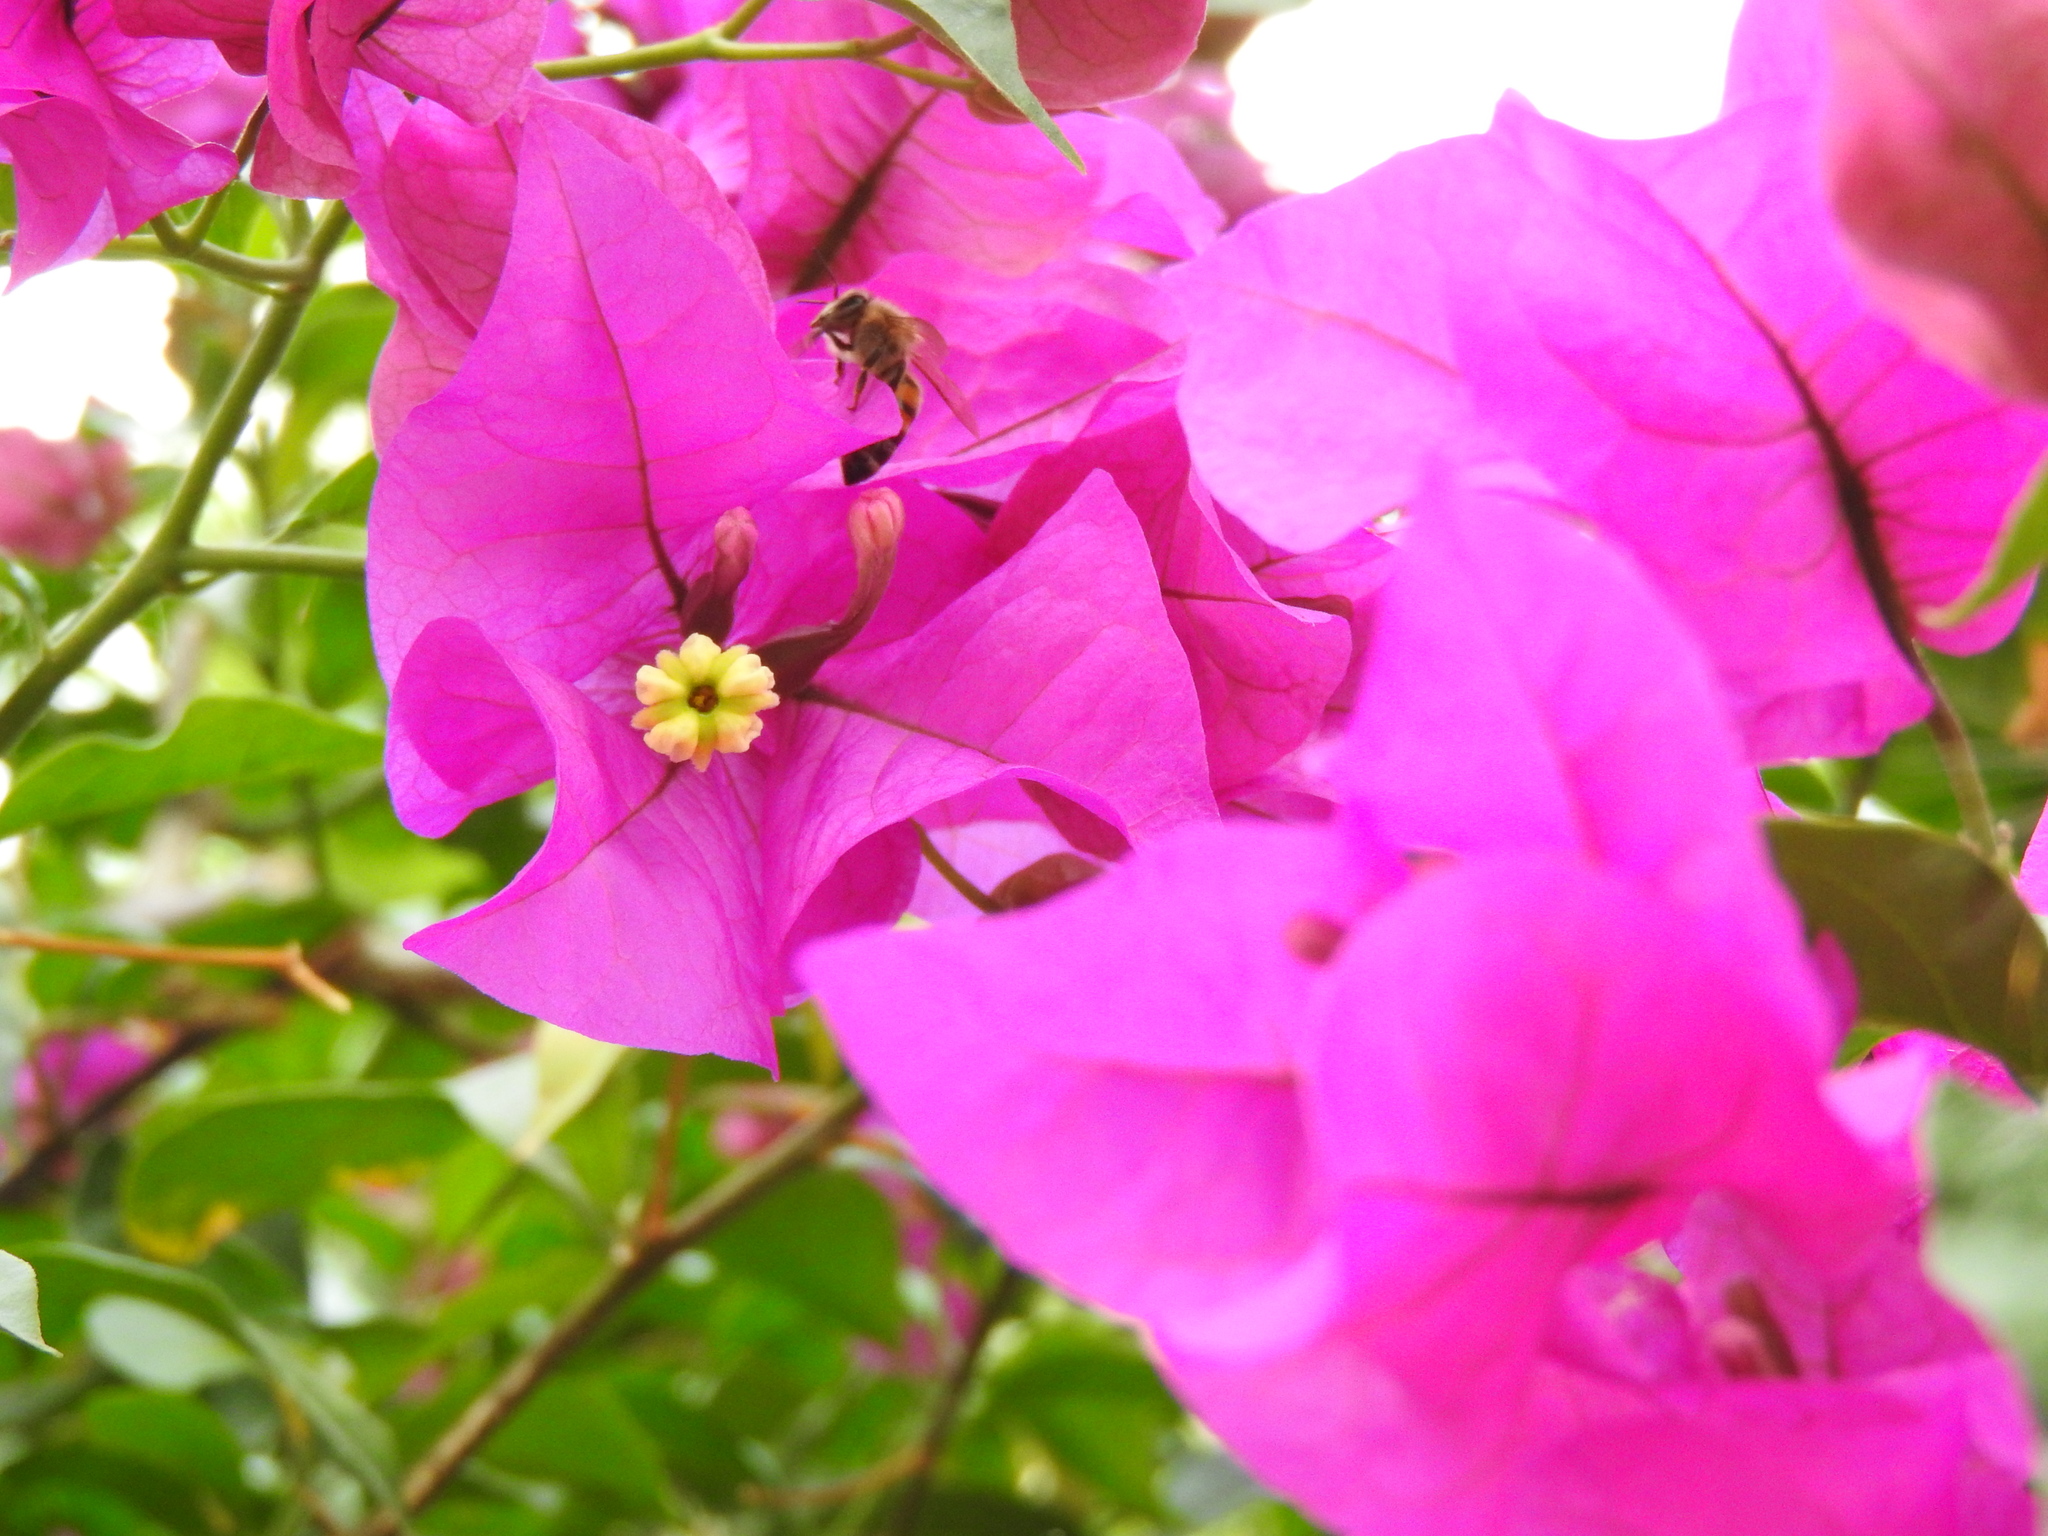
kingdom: Animalia
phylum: Arthropoda
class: Insecta
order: Hymenoptera
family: Apidae
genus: Apis
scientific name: Apis mellifera
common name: Honey bee
